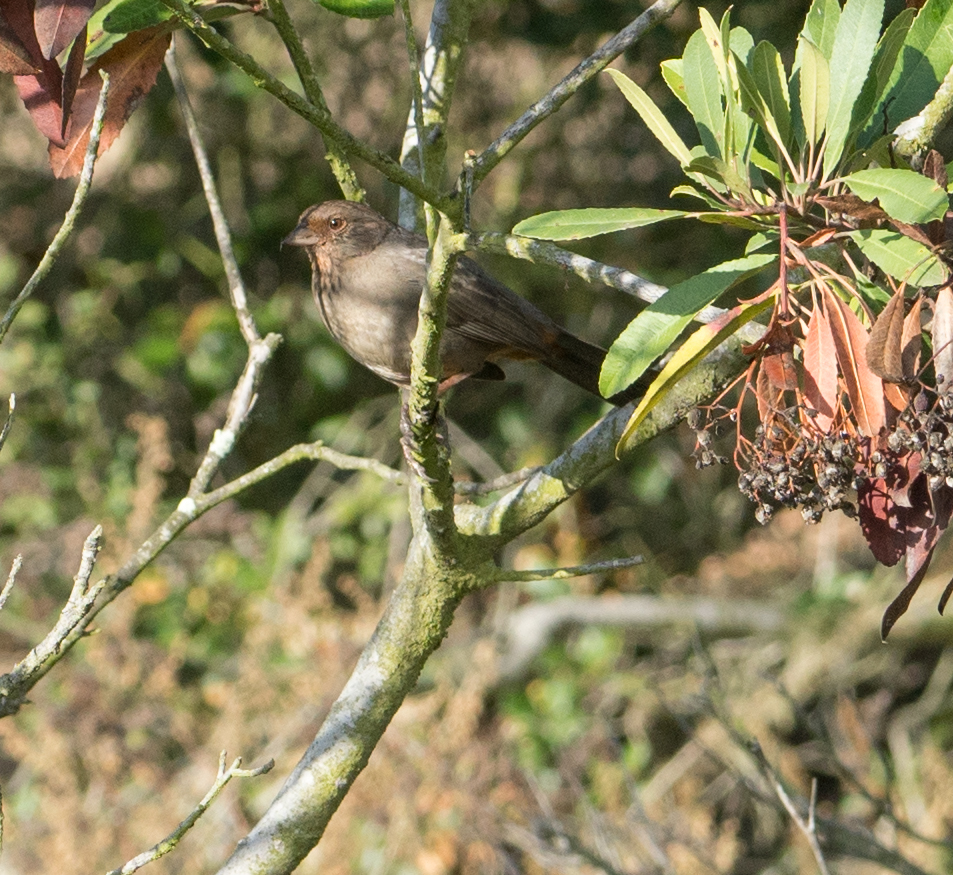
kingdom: Animalia
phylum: Chordata
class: Aves
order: Passeriformes
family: Passerellidae
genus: Melozone
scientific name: Melozone crissalis
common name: California towhee
